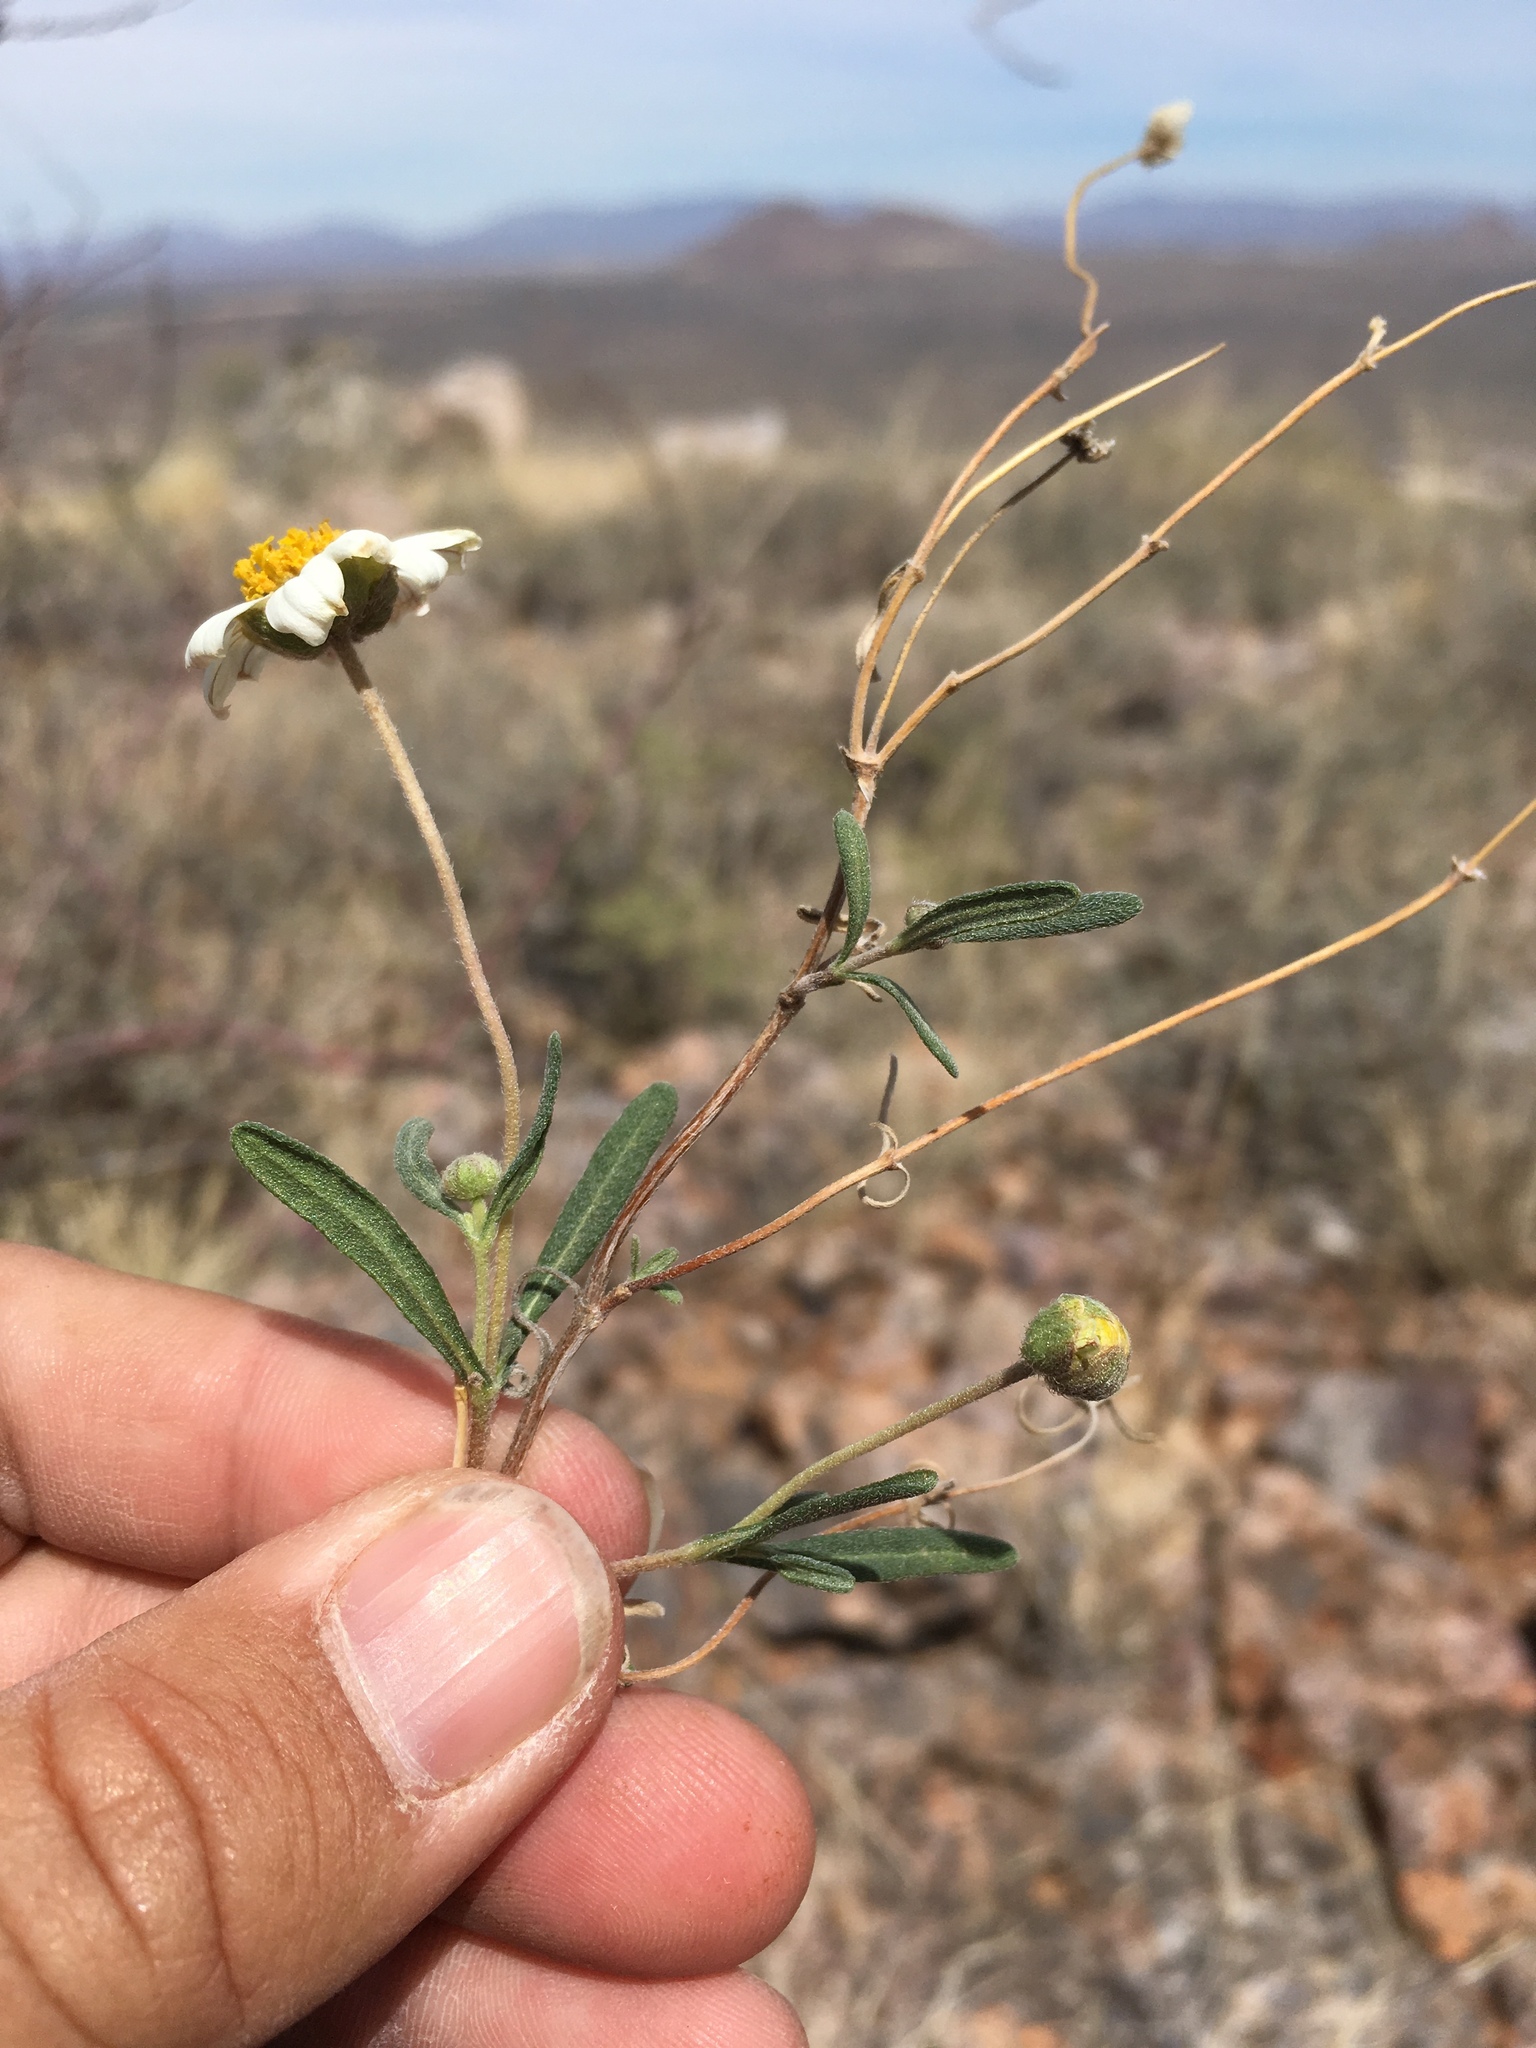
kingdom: Plantae
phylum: Tracheophyta
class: Magnoliopsida
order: Asterales
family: Asteraceae
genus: Melampodium
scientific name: Melampodium leucanthum
